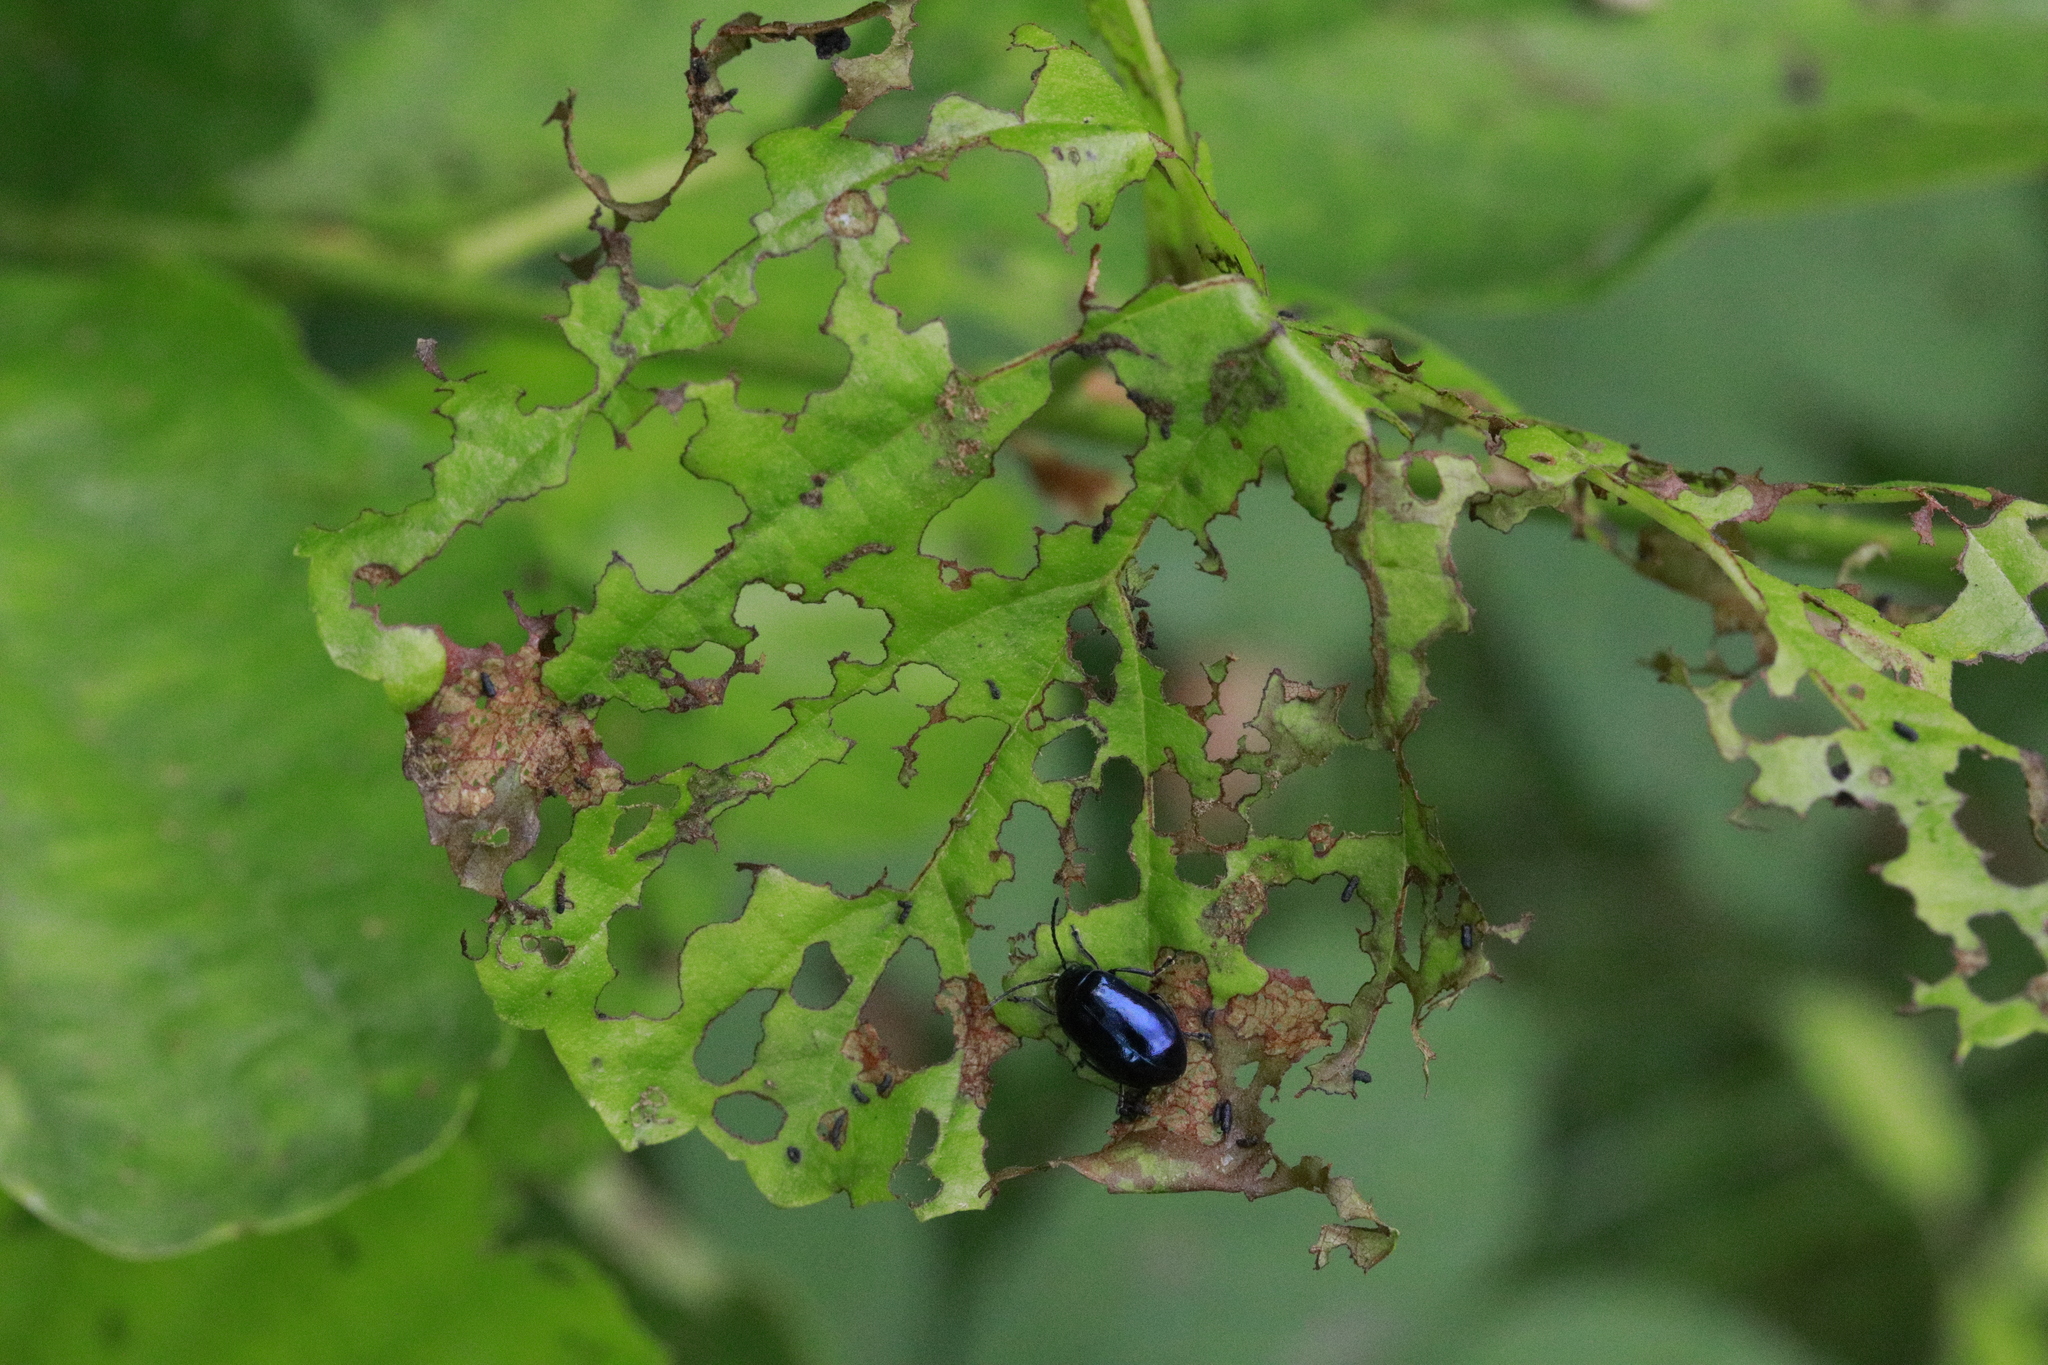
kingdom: Animalia
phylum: Arthropoda
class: Insecta
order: Coleoptera
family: Chrysomelidae
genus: Agelastica
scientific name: Agelastica alni
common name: Alder leaf beetle
